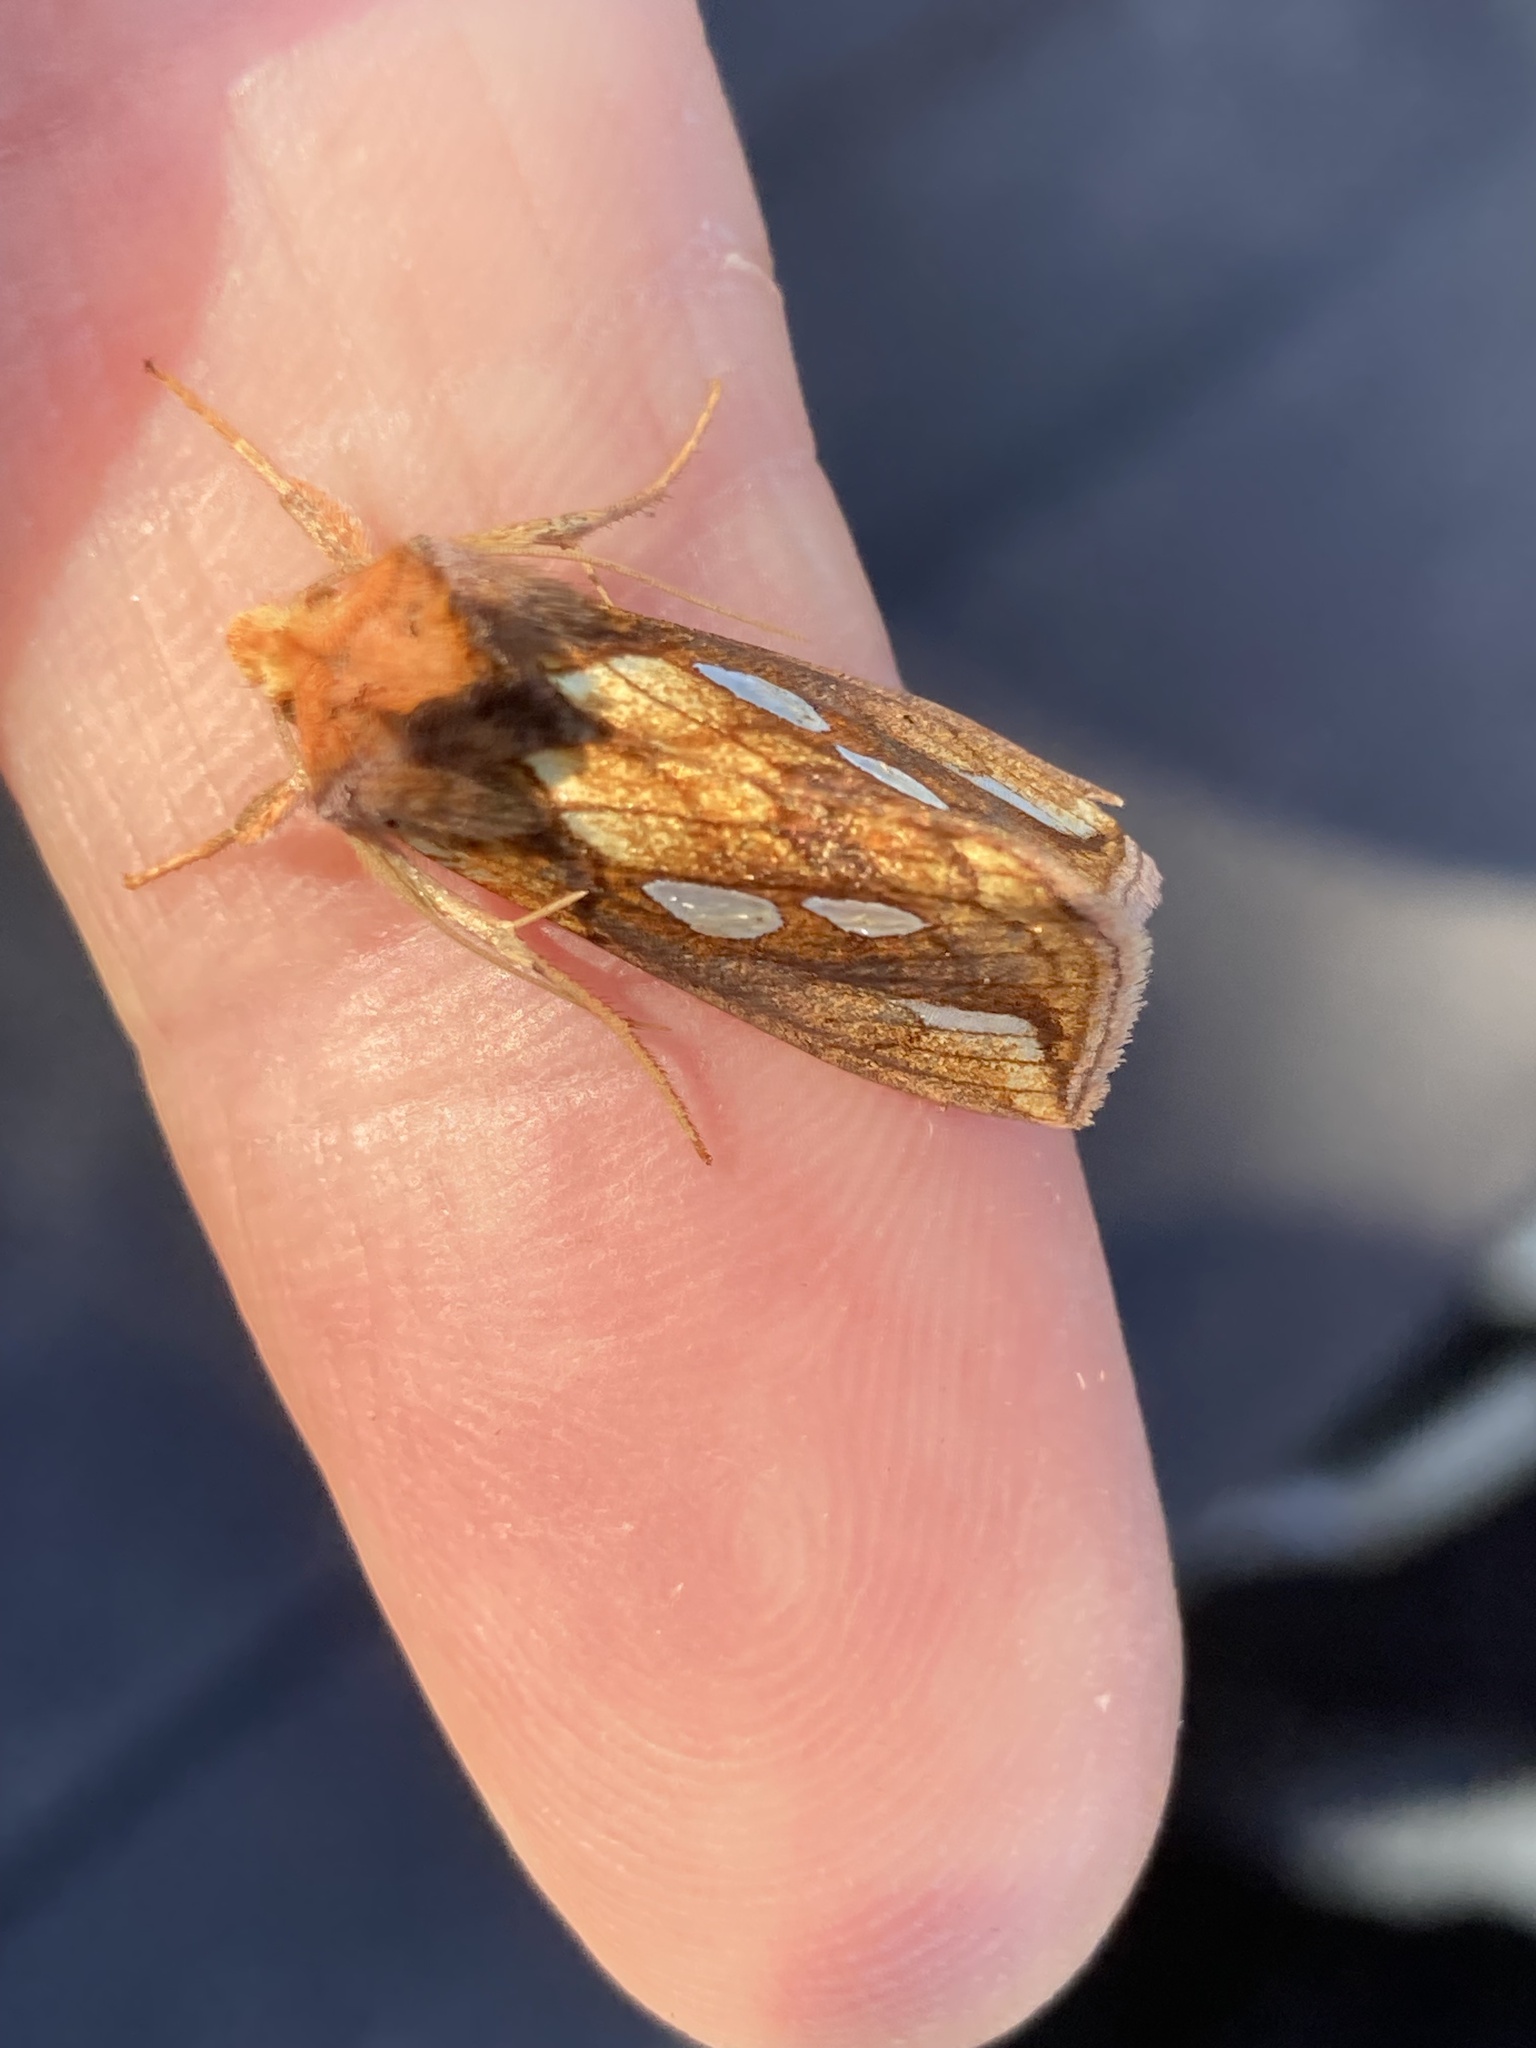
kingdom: Animalia
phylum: Arthropoda
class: Insecta
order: Lepidoptera
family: Noctuidae
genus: Plusia
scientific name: Plusia festucae
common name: Gold spot
